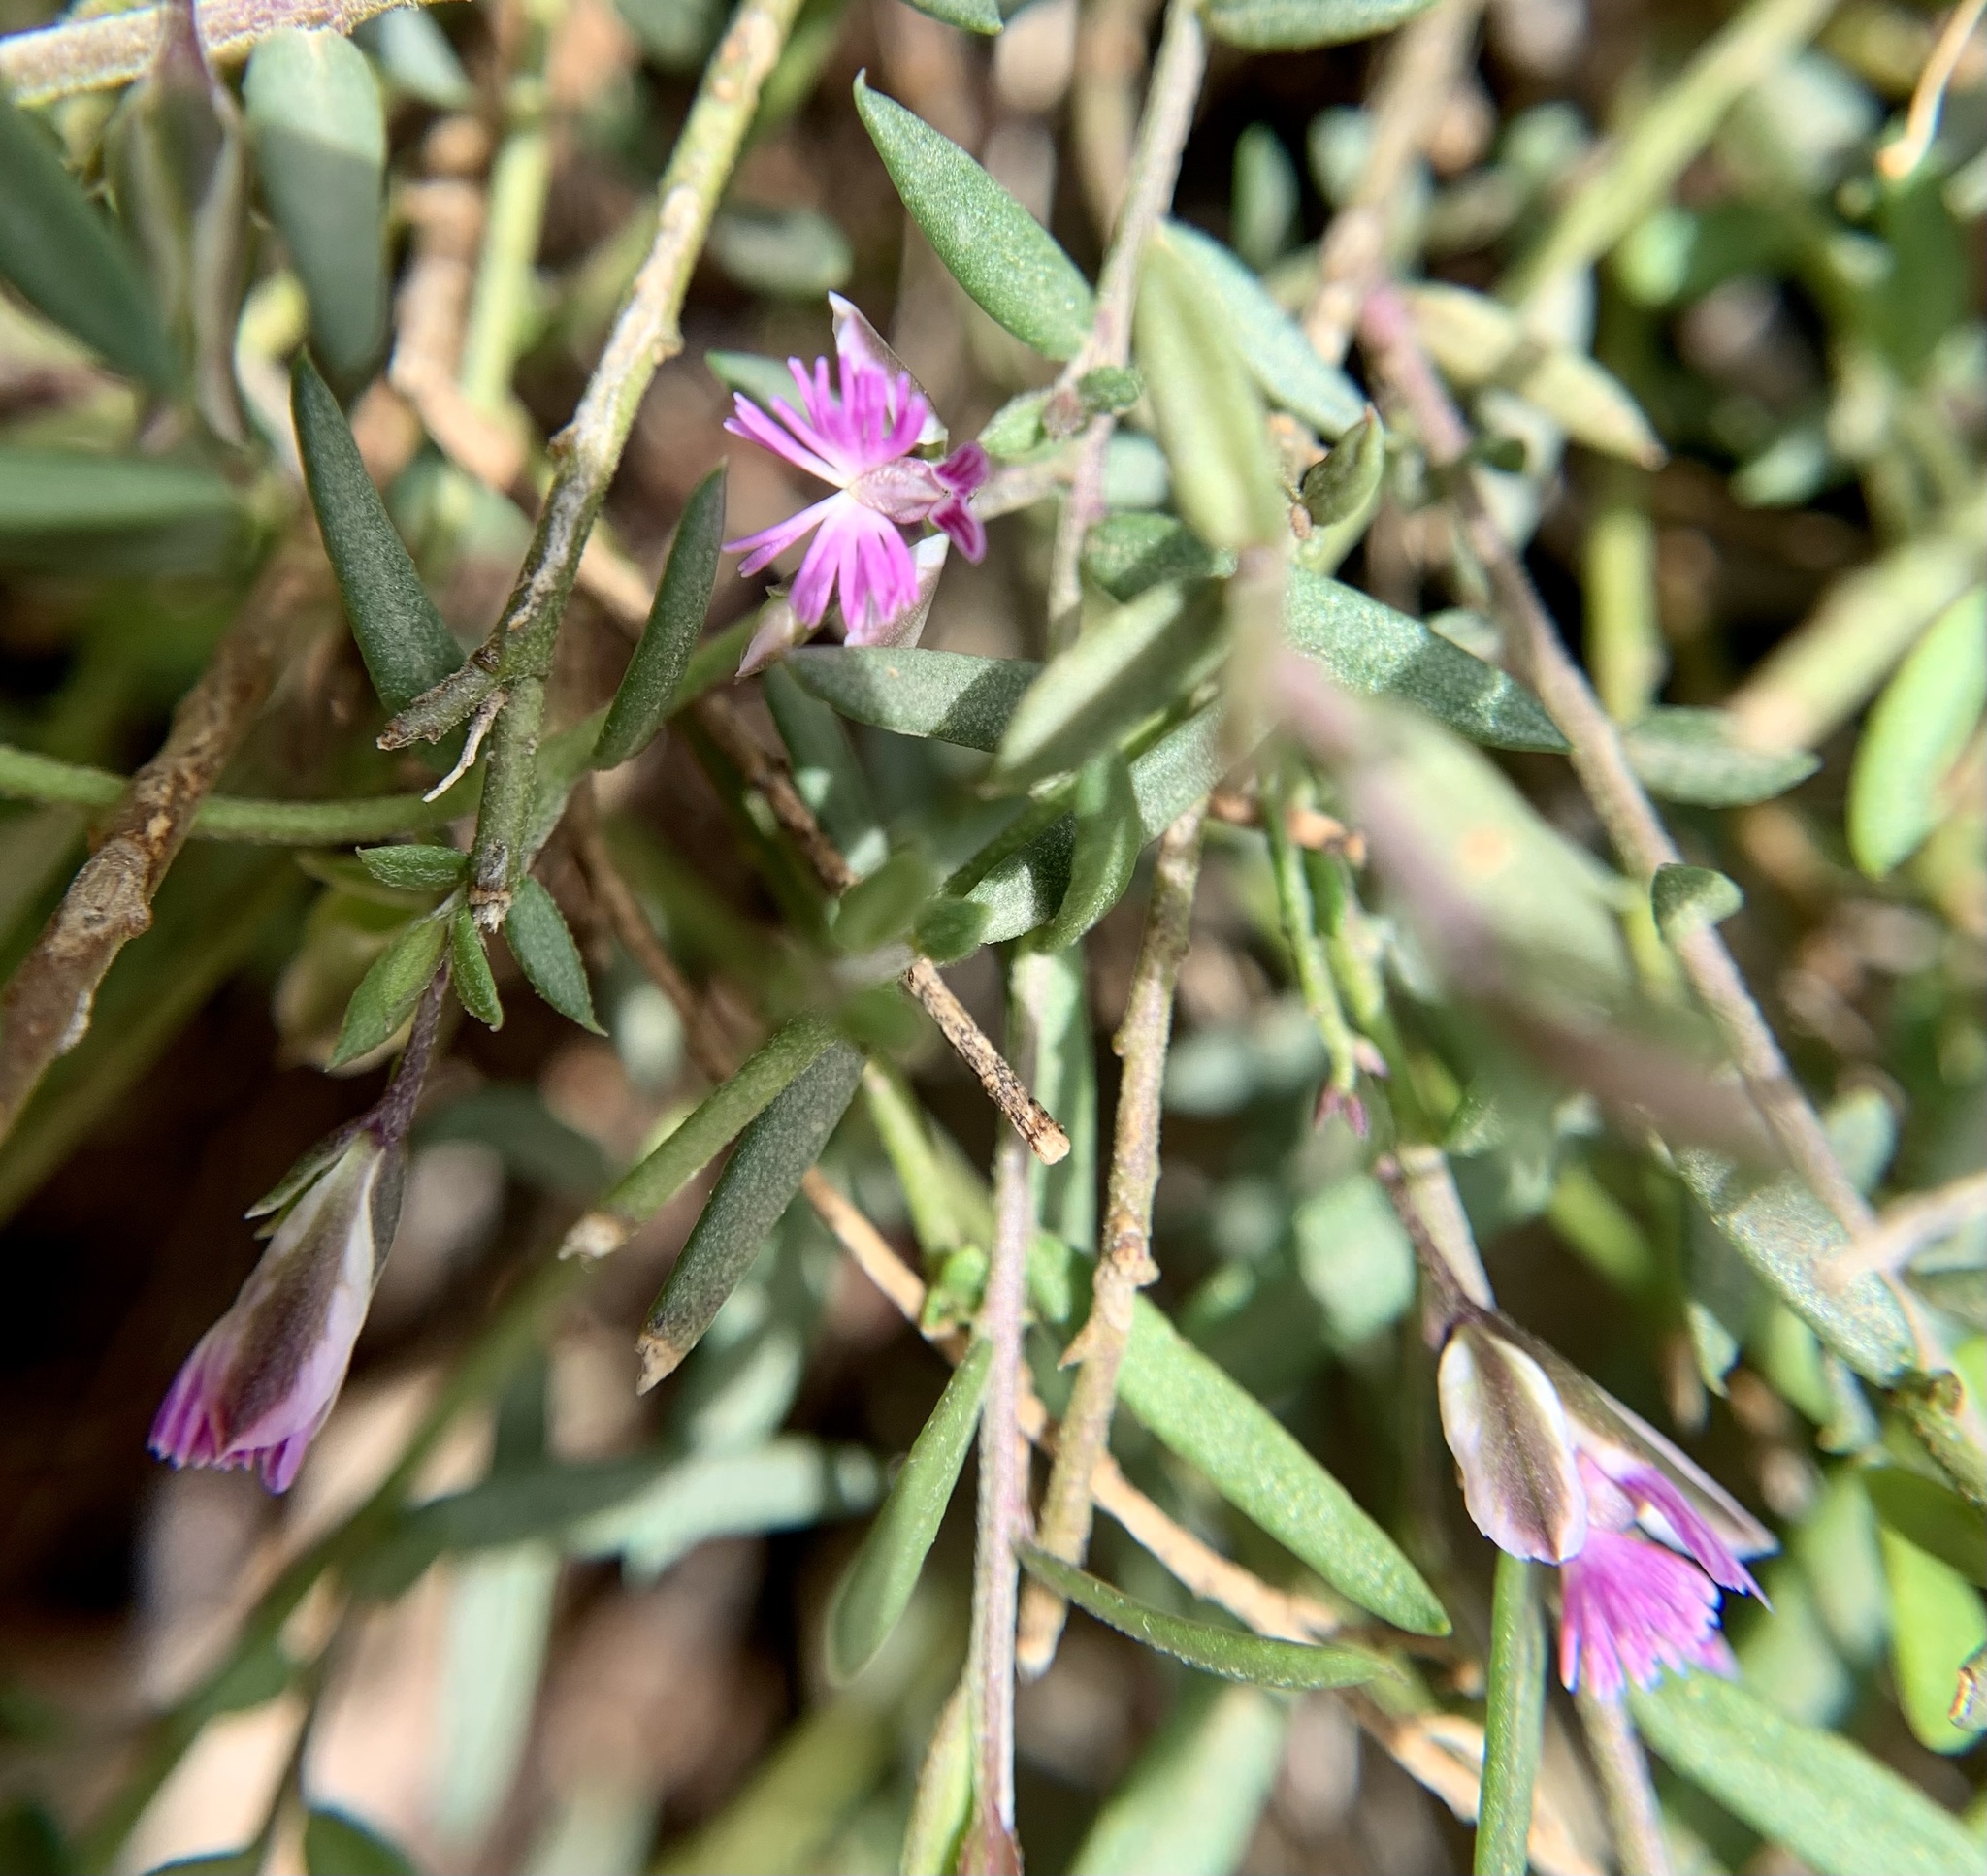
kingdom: Plantae
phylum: Tracheophyta
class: Magnoliopsida
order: Fabales
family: Polygalaceae
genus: Polygala
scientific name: Polygala rupestris
